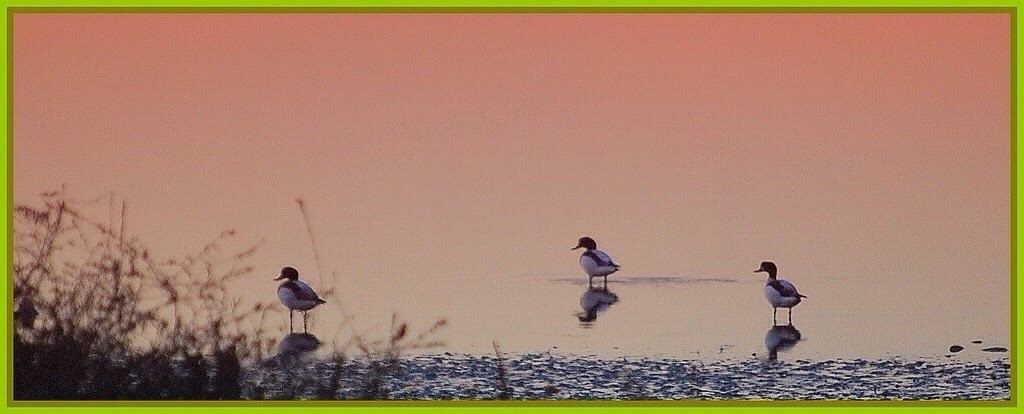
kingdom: Animalia
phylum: Chordata
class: Aves
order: Anseriformes
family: Anatidae
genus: Tadorna
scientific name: Tadorna tadorna
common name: Common shelduck
